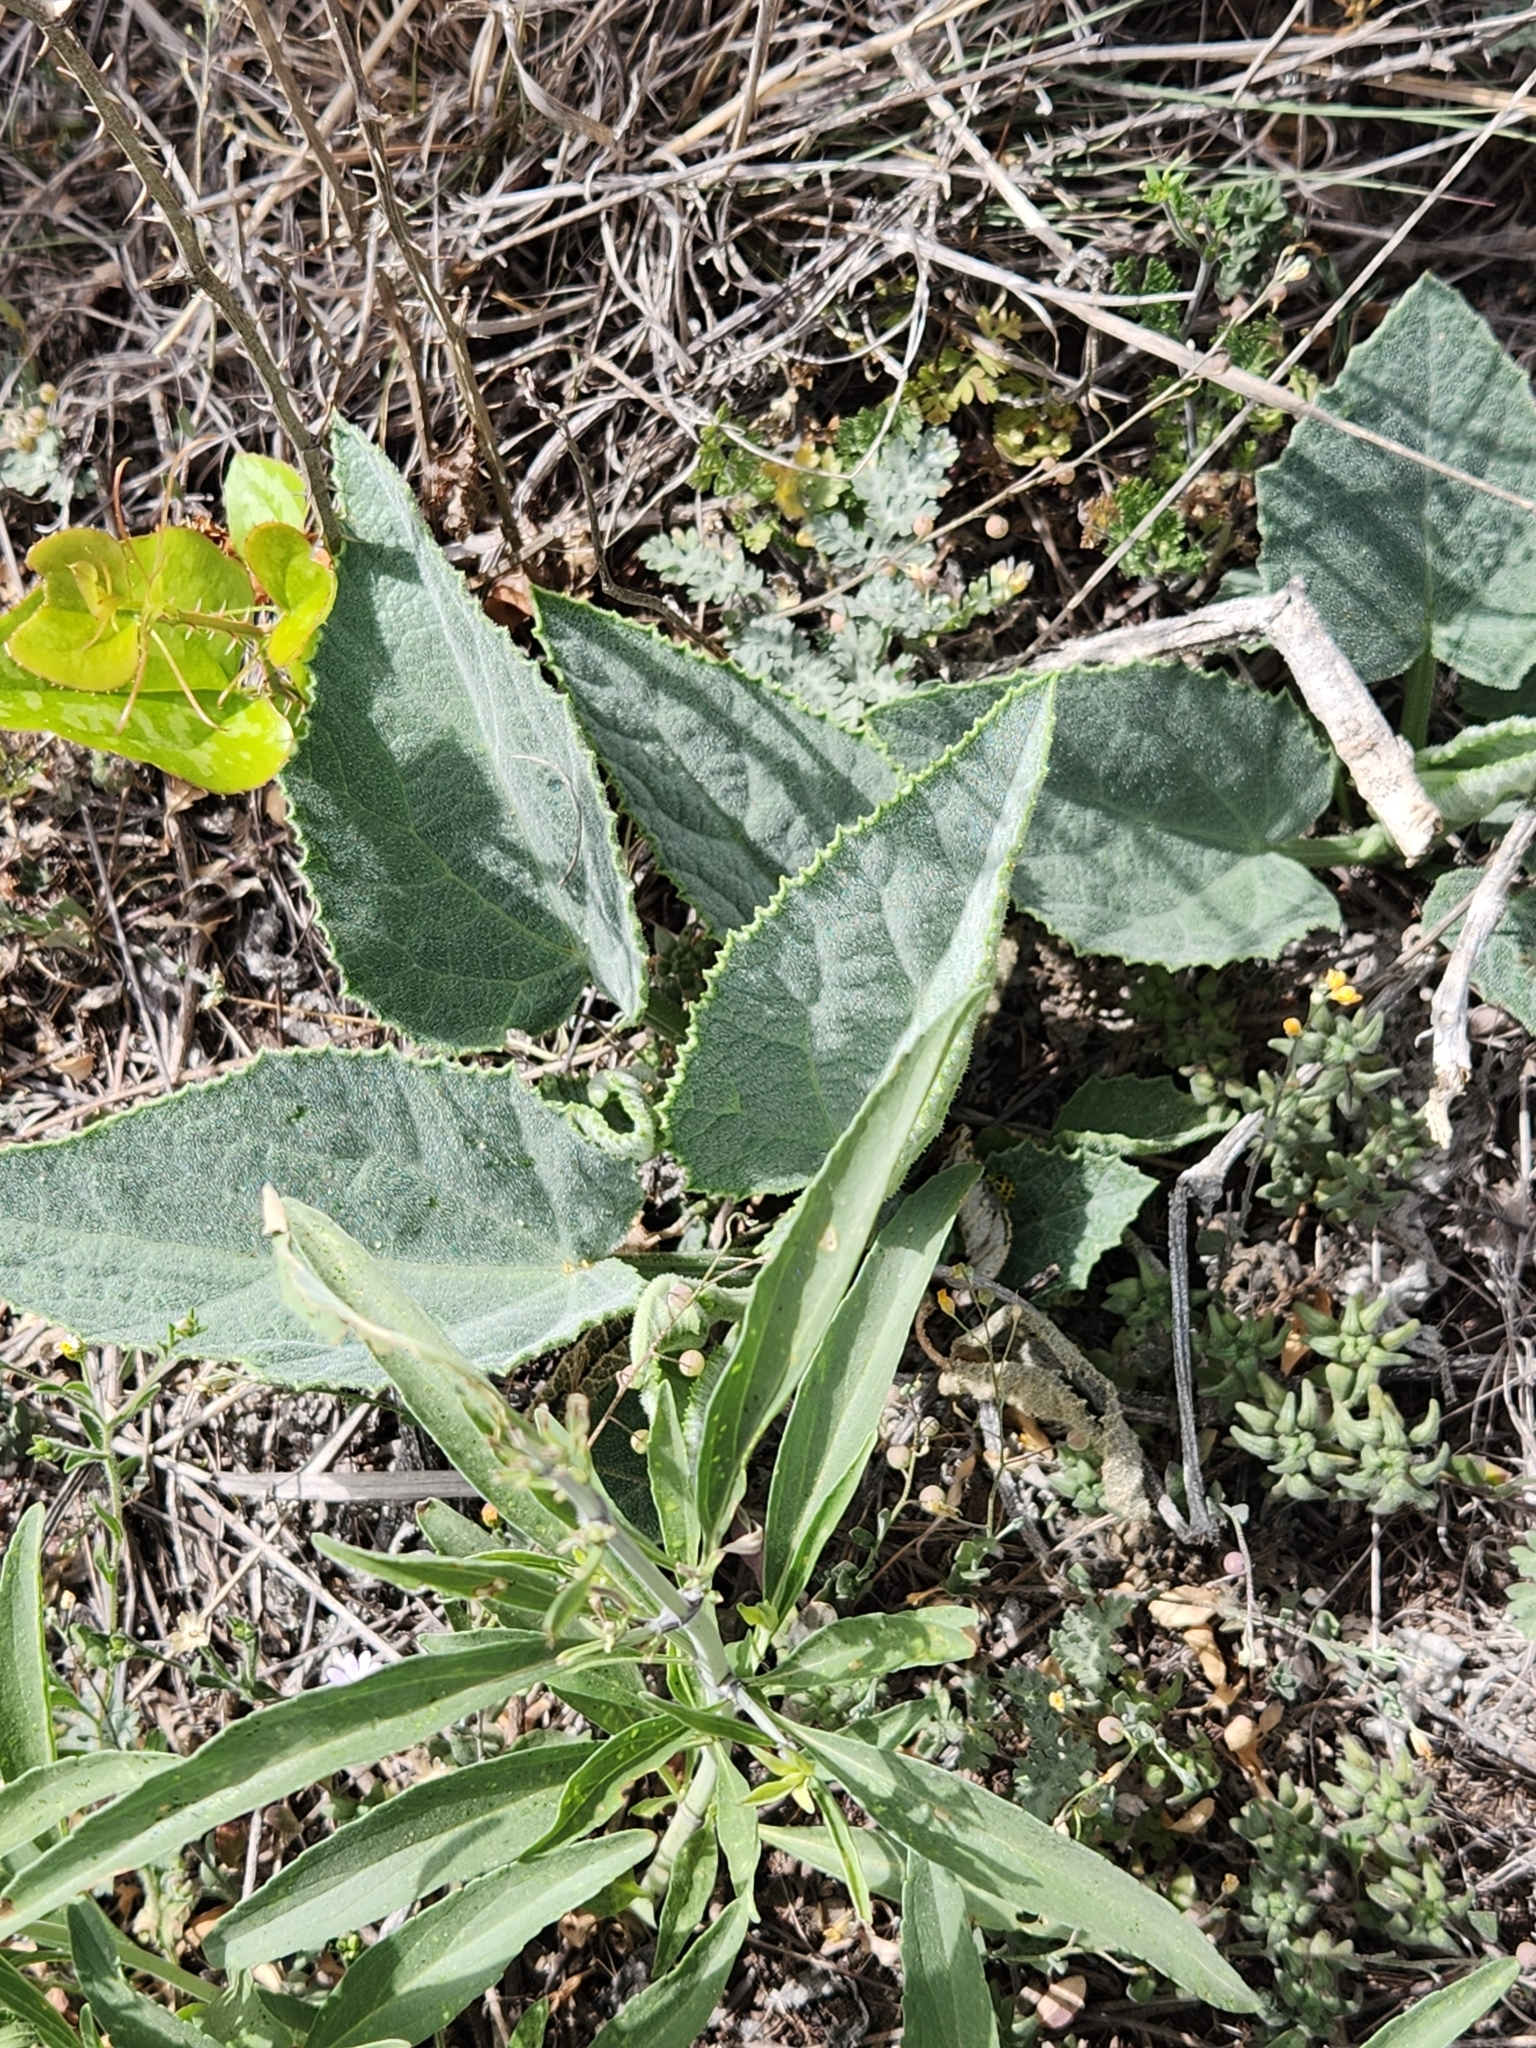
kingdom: Plantae
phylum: Tracheophyta
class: Magnoliopsida
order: Cucurbitales
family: Cucurbitaceae
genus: Cucurbita
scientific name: Cucurbita foetidissima
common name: Buffalo gourd
